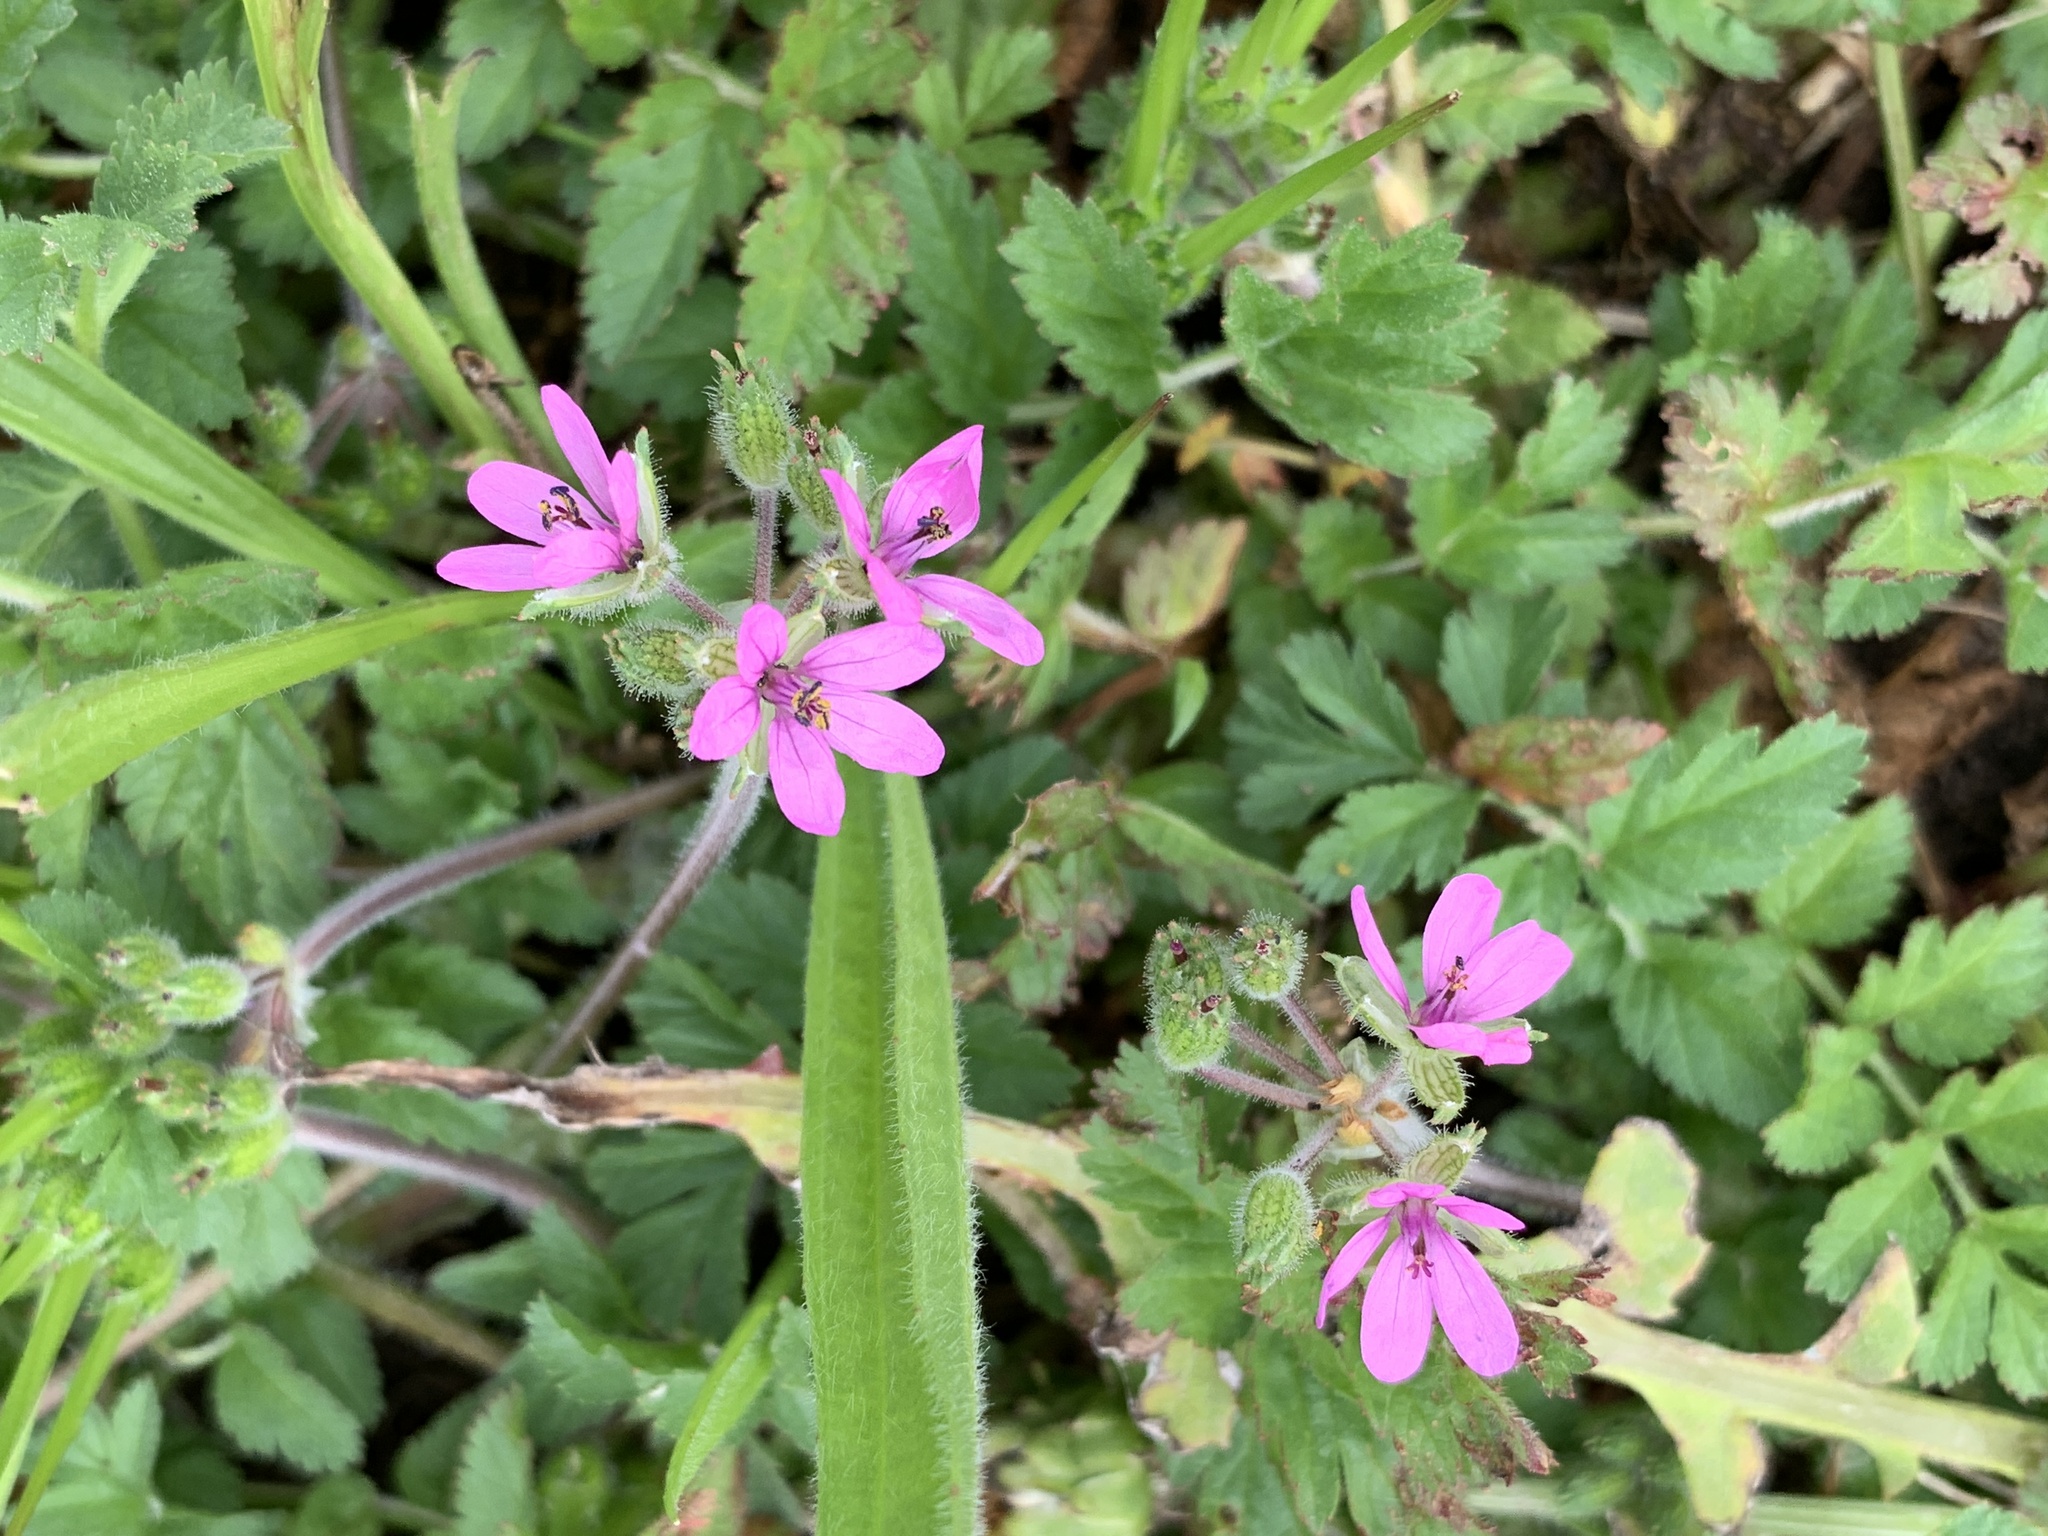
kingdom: Plantae
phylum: Tracheophyta
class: Magnoliopsida
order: Geraniales
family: Geraniaceae
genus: Erodium
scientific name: Erodium moschatum
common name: Musk stork's-bill
